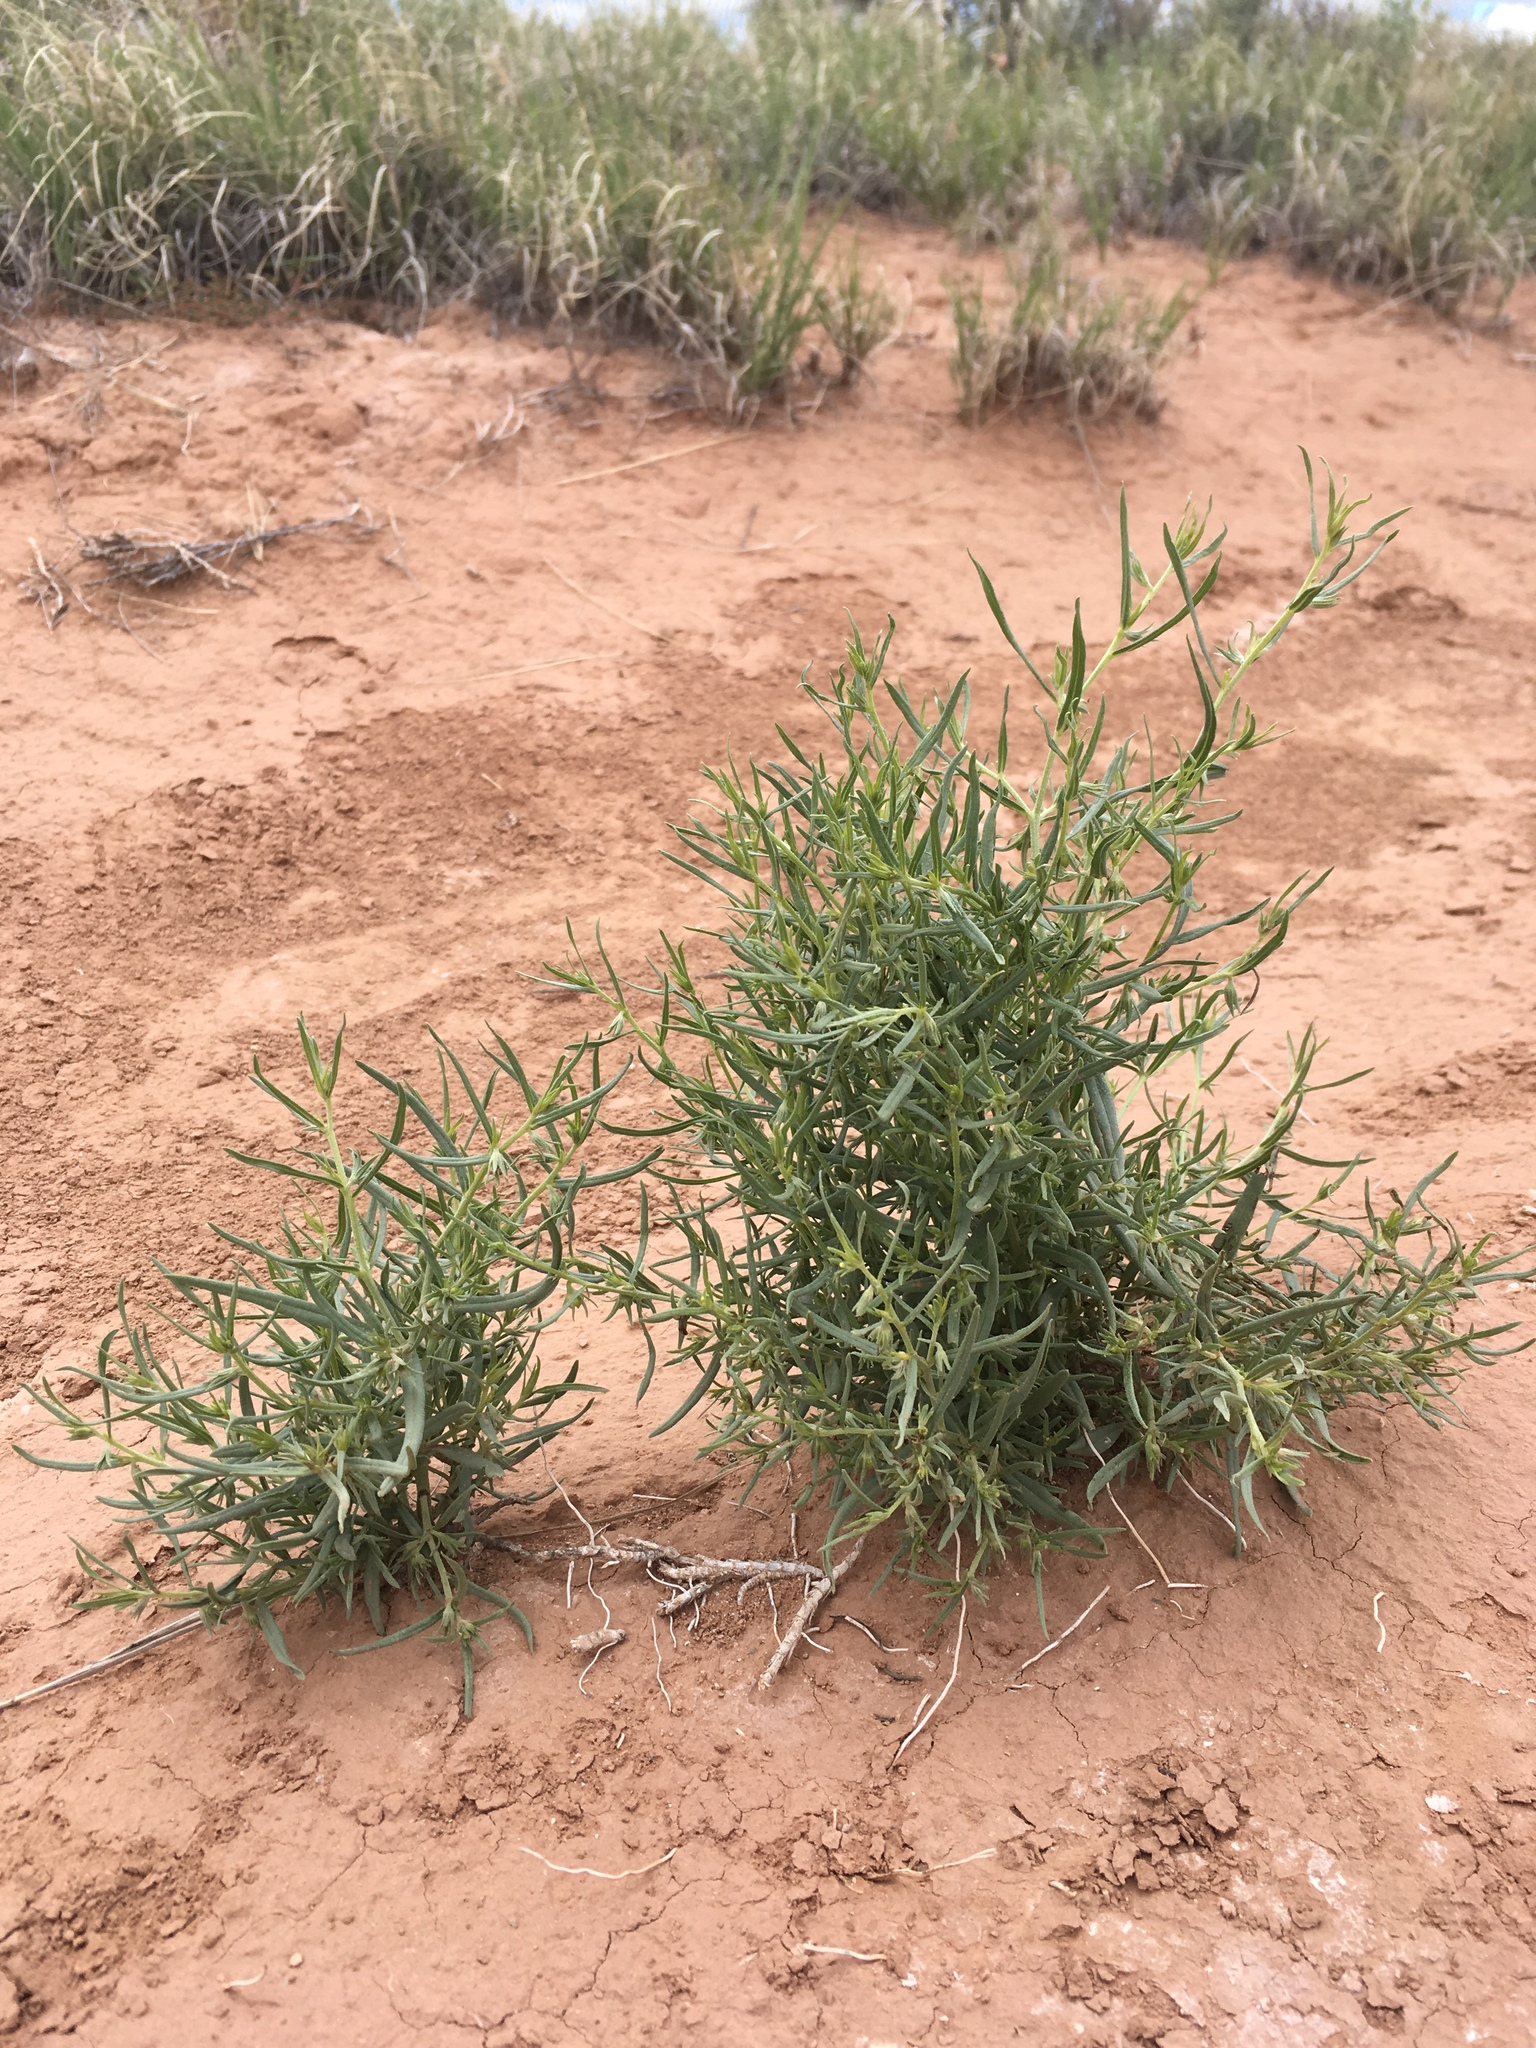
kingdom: Plantae
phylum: Tracheophyta
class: Magnoliopsida
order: Boraginales
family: Boraginaceae
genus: Lithospermum
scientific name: Lithospermum incisum
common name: Fringed gromwell
